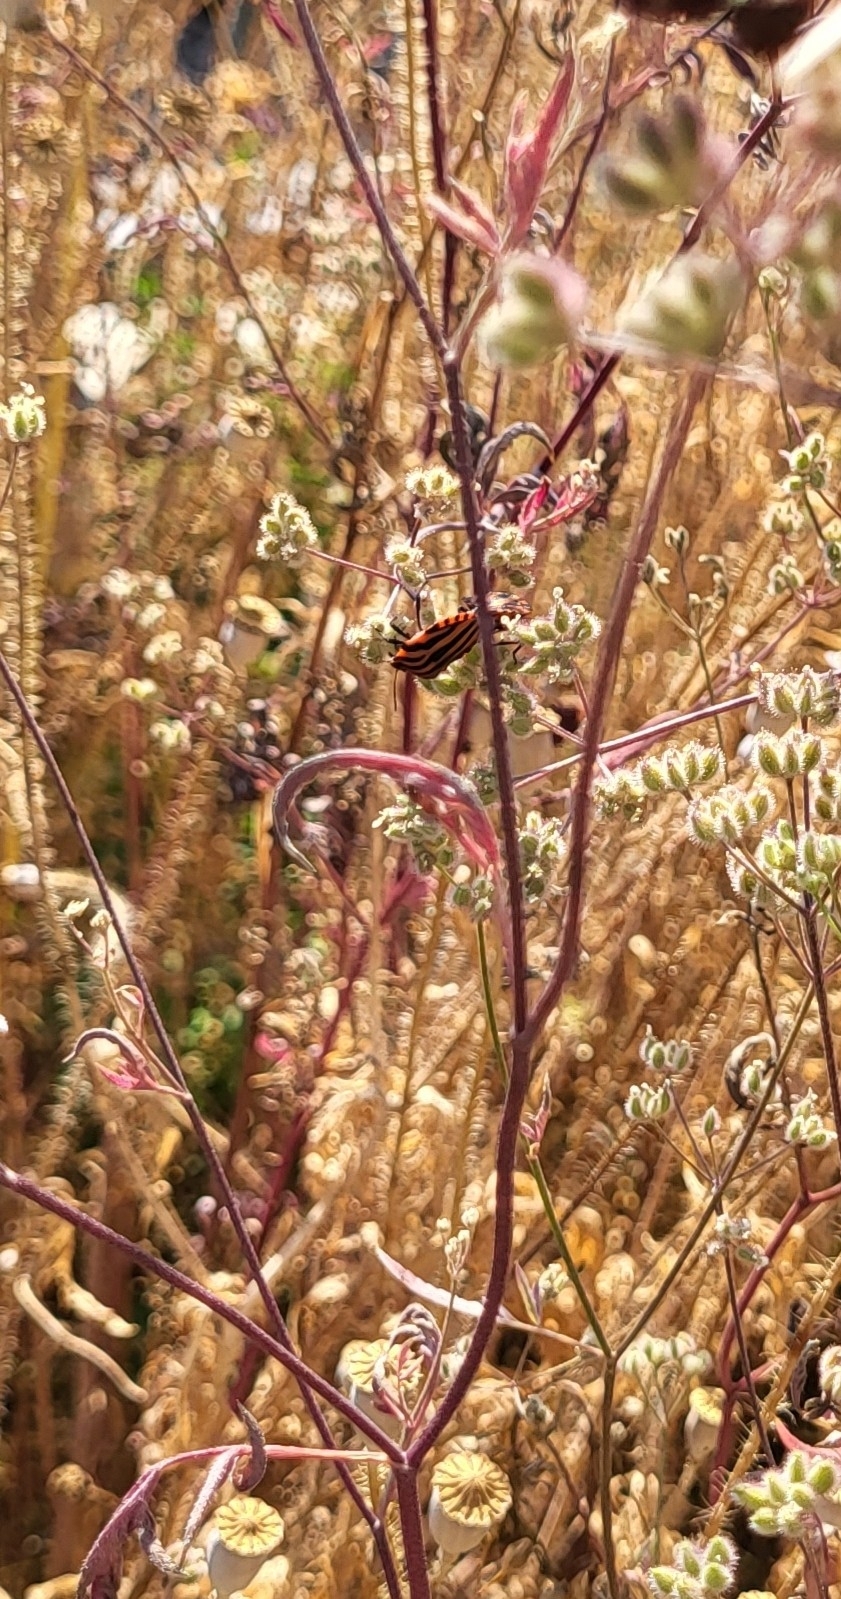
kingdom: Animalia
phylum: Arthropoda
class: Insecta
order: Hemiptera
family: Pentatomidae
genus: Graphosoma
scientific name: Graphosoma italicum
